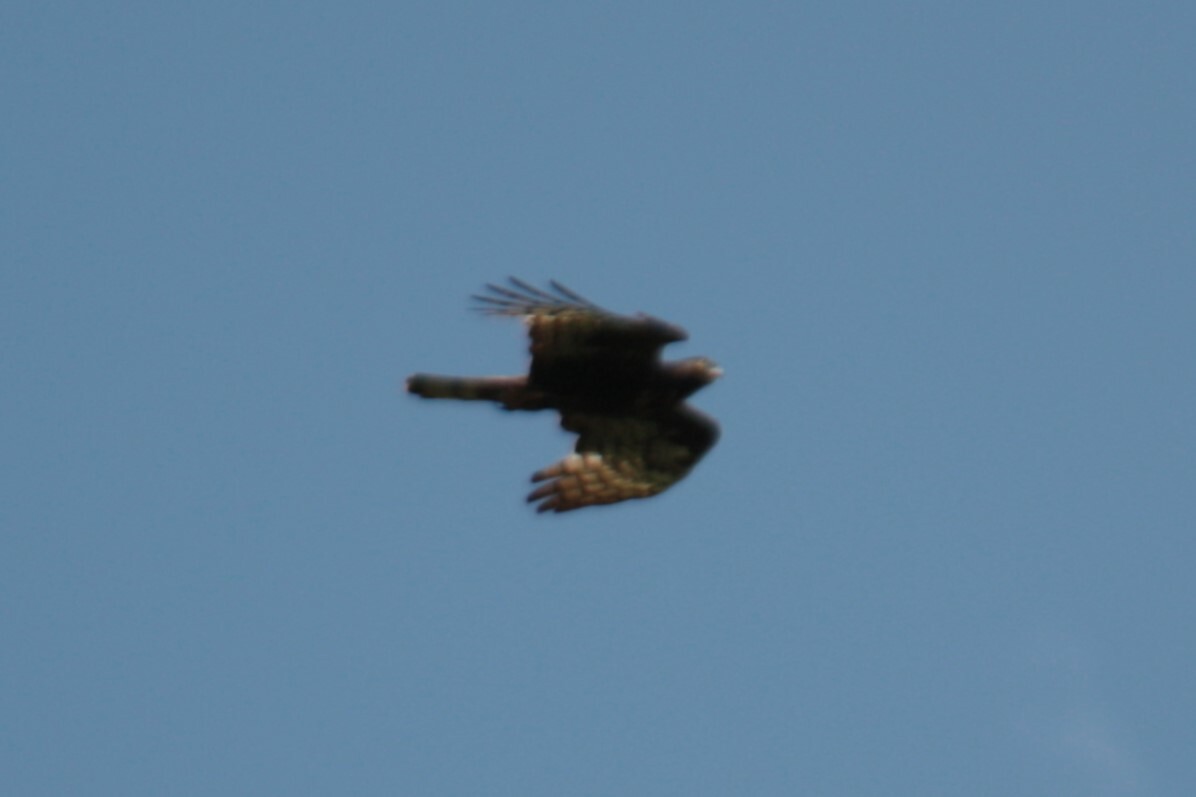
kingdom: Animalia
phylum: Chordata
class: Aves
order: Accipitriformes
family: Accipitridae
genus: Pernis
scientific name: Pernis ptilorhynchus
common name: Crested honey buzzard
